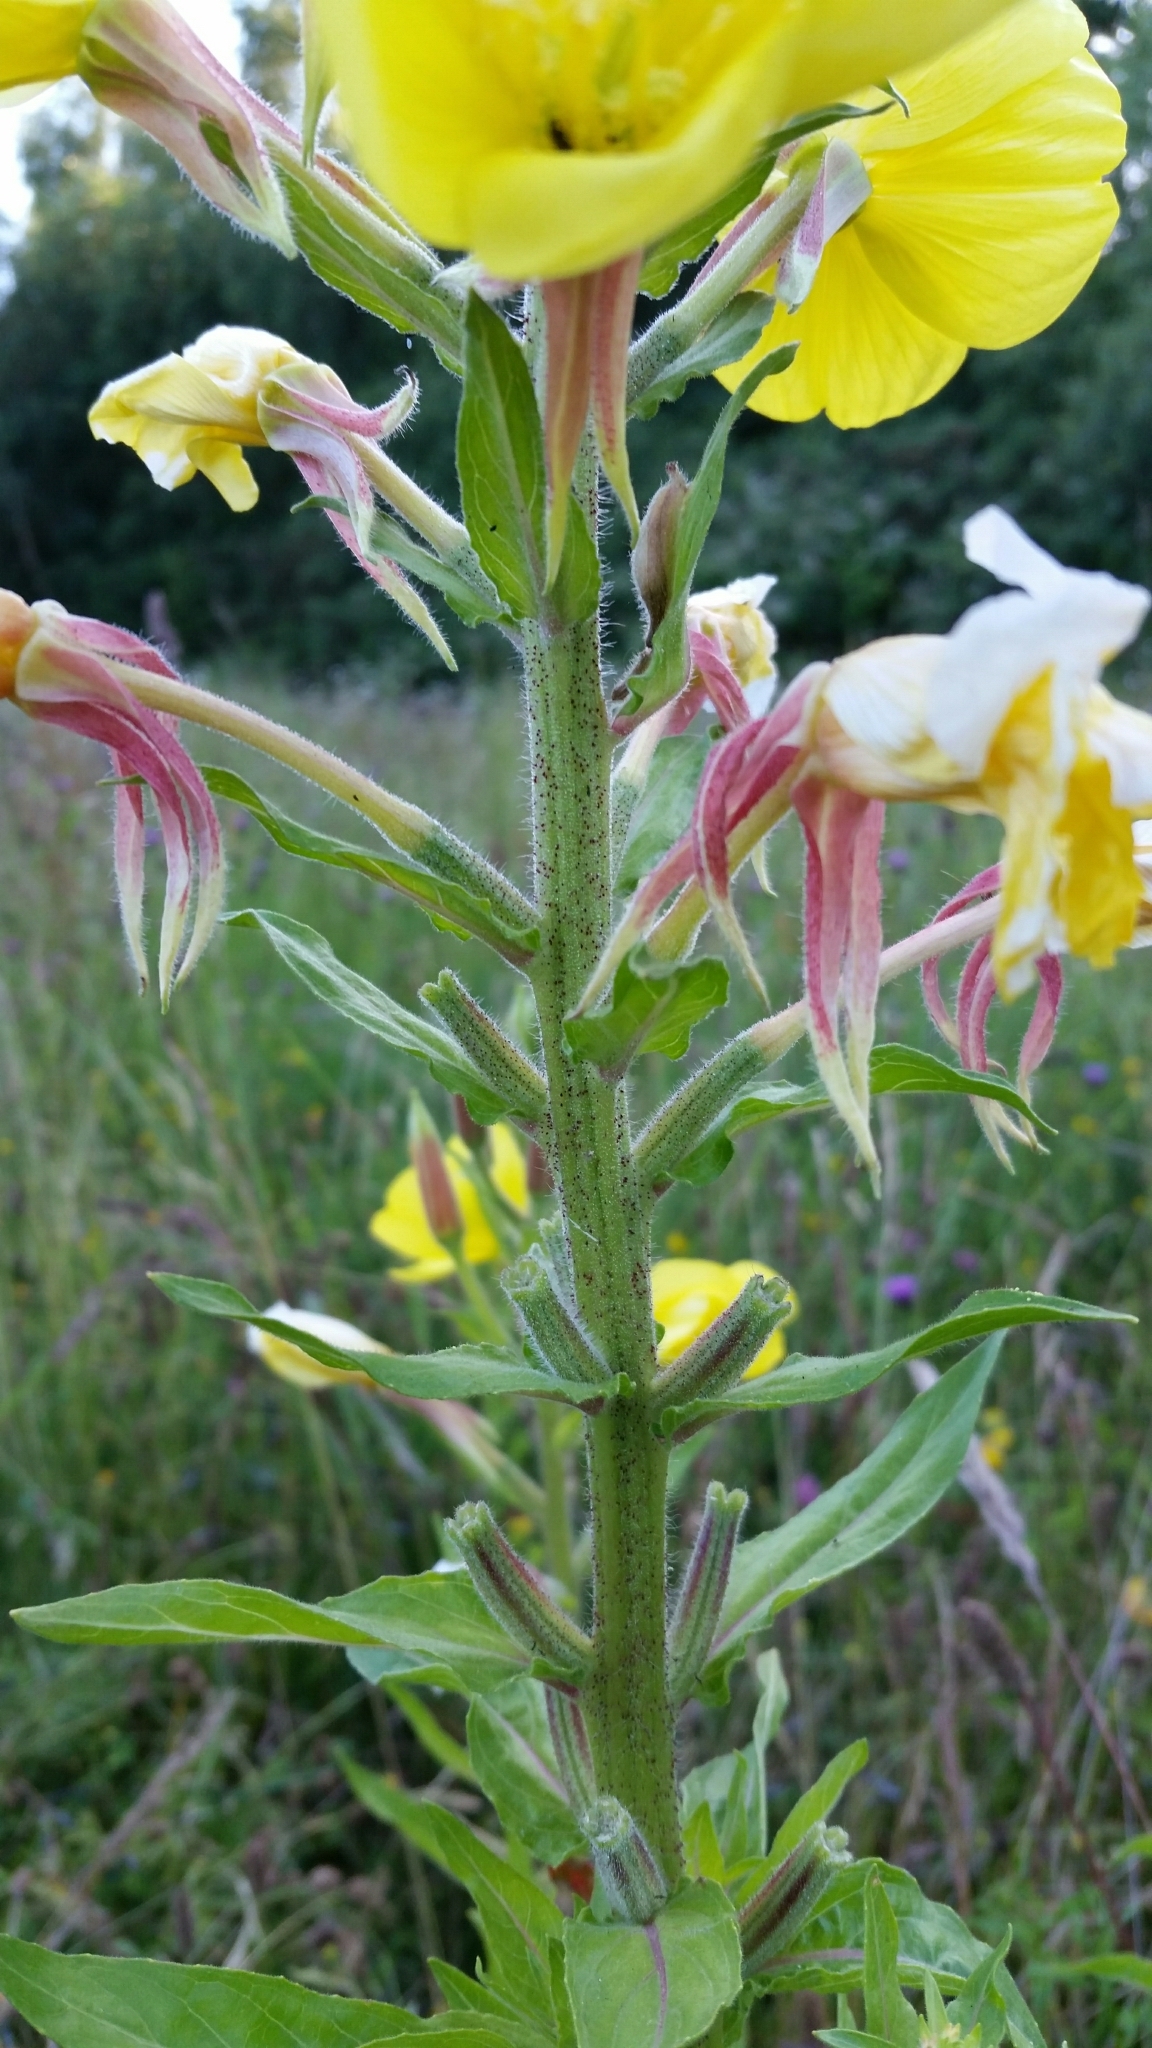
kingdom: Plantae
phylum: Tracheophyta
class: Magnoliopsida
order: Myrtales
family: Onagraceae
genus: Oenothera
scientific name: Oenothera glazioviana
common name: Large-flowered evening-primrose
